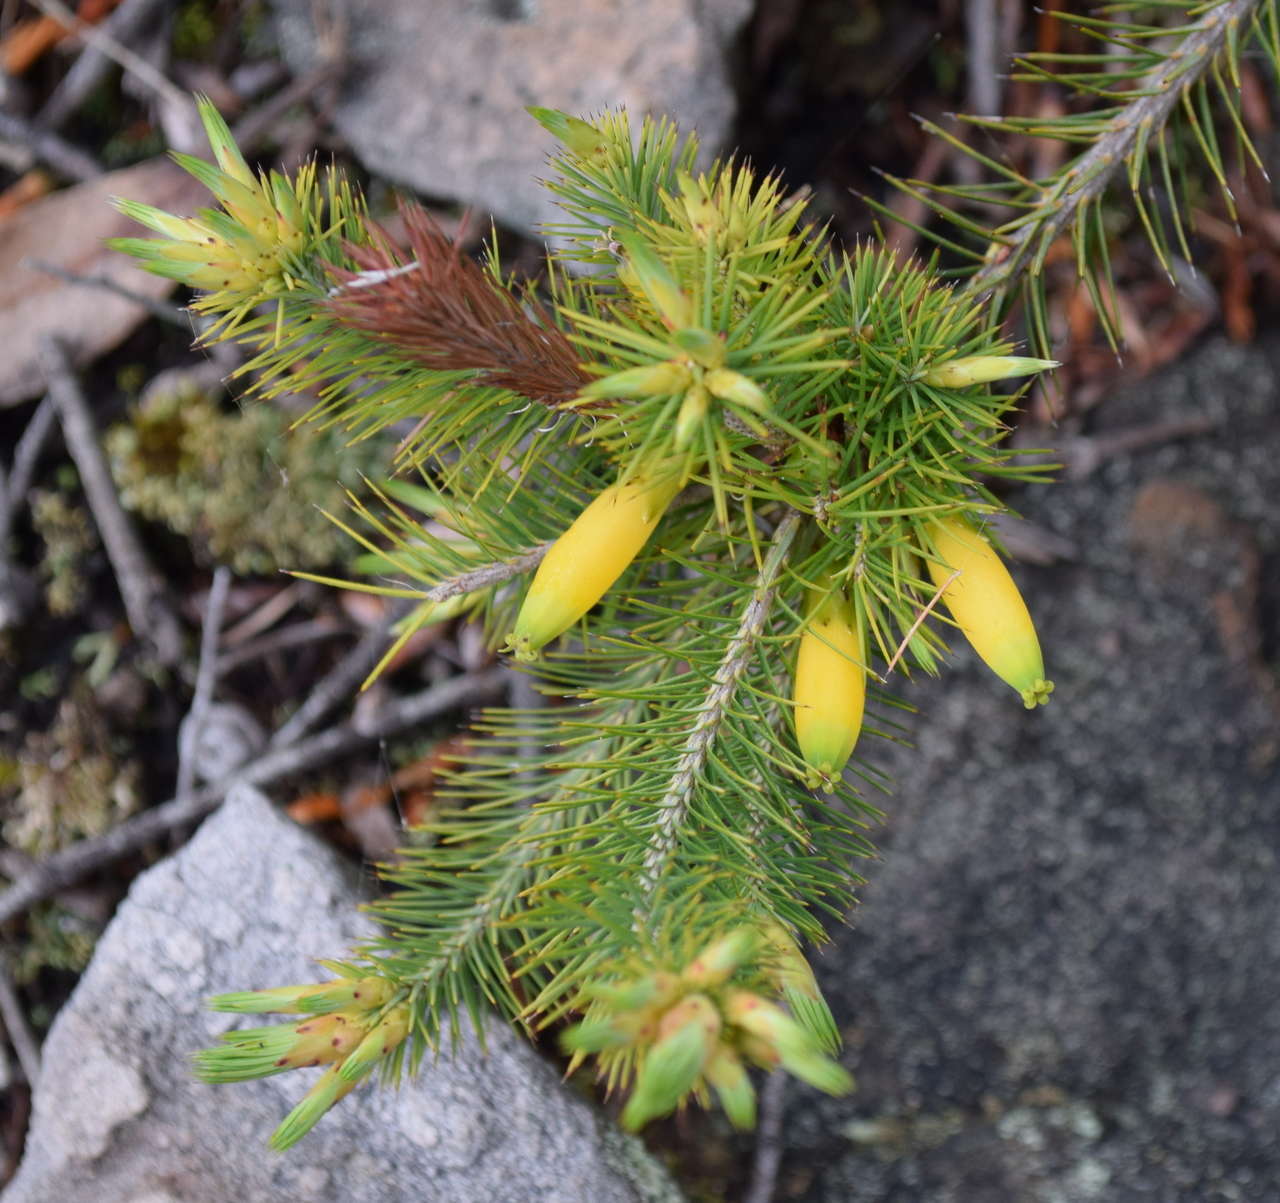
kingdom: Plantae
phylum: Tracheophyta
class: Magnoliopsida
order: Ericales
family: Ericaceae
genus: Stenanthera
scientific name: Stenanthera pinifolia
